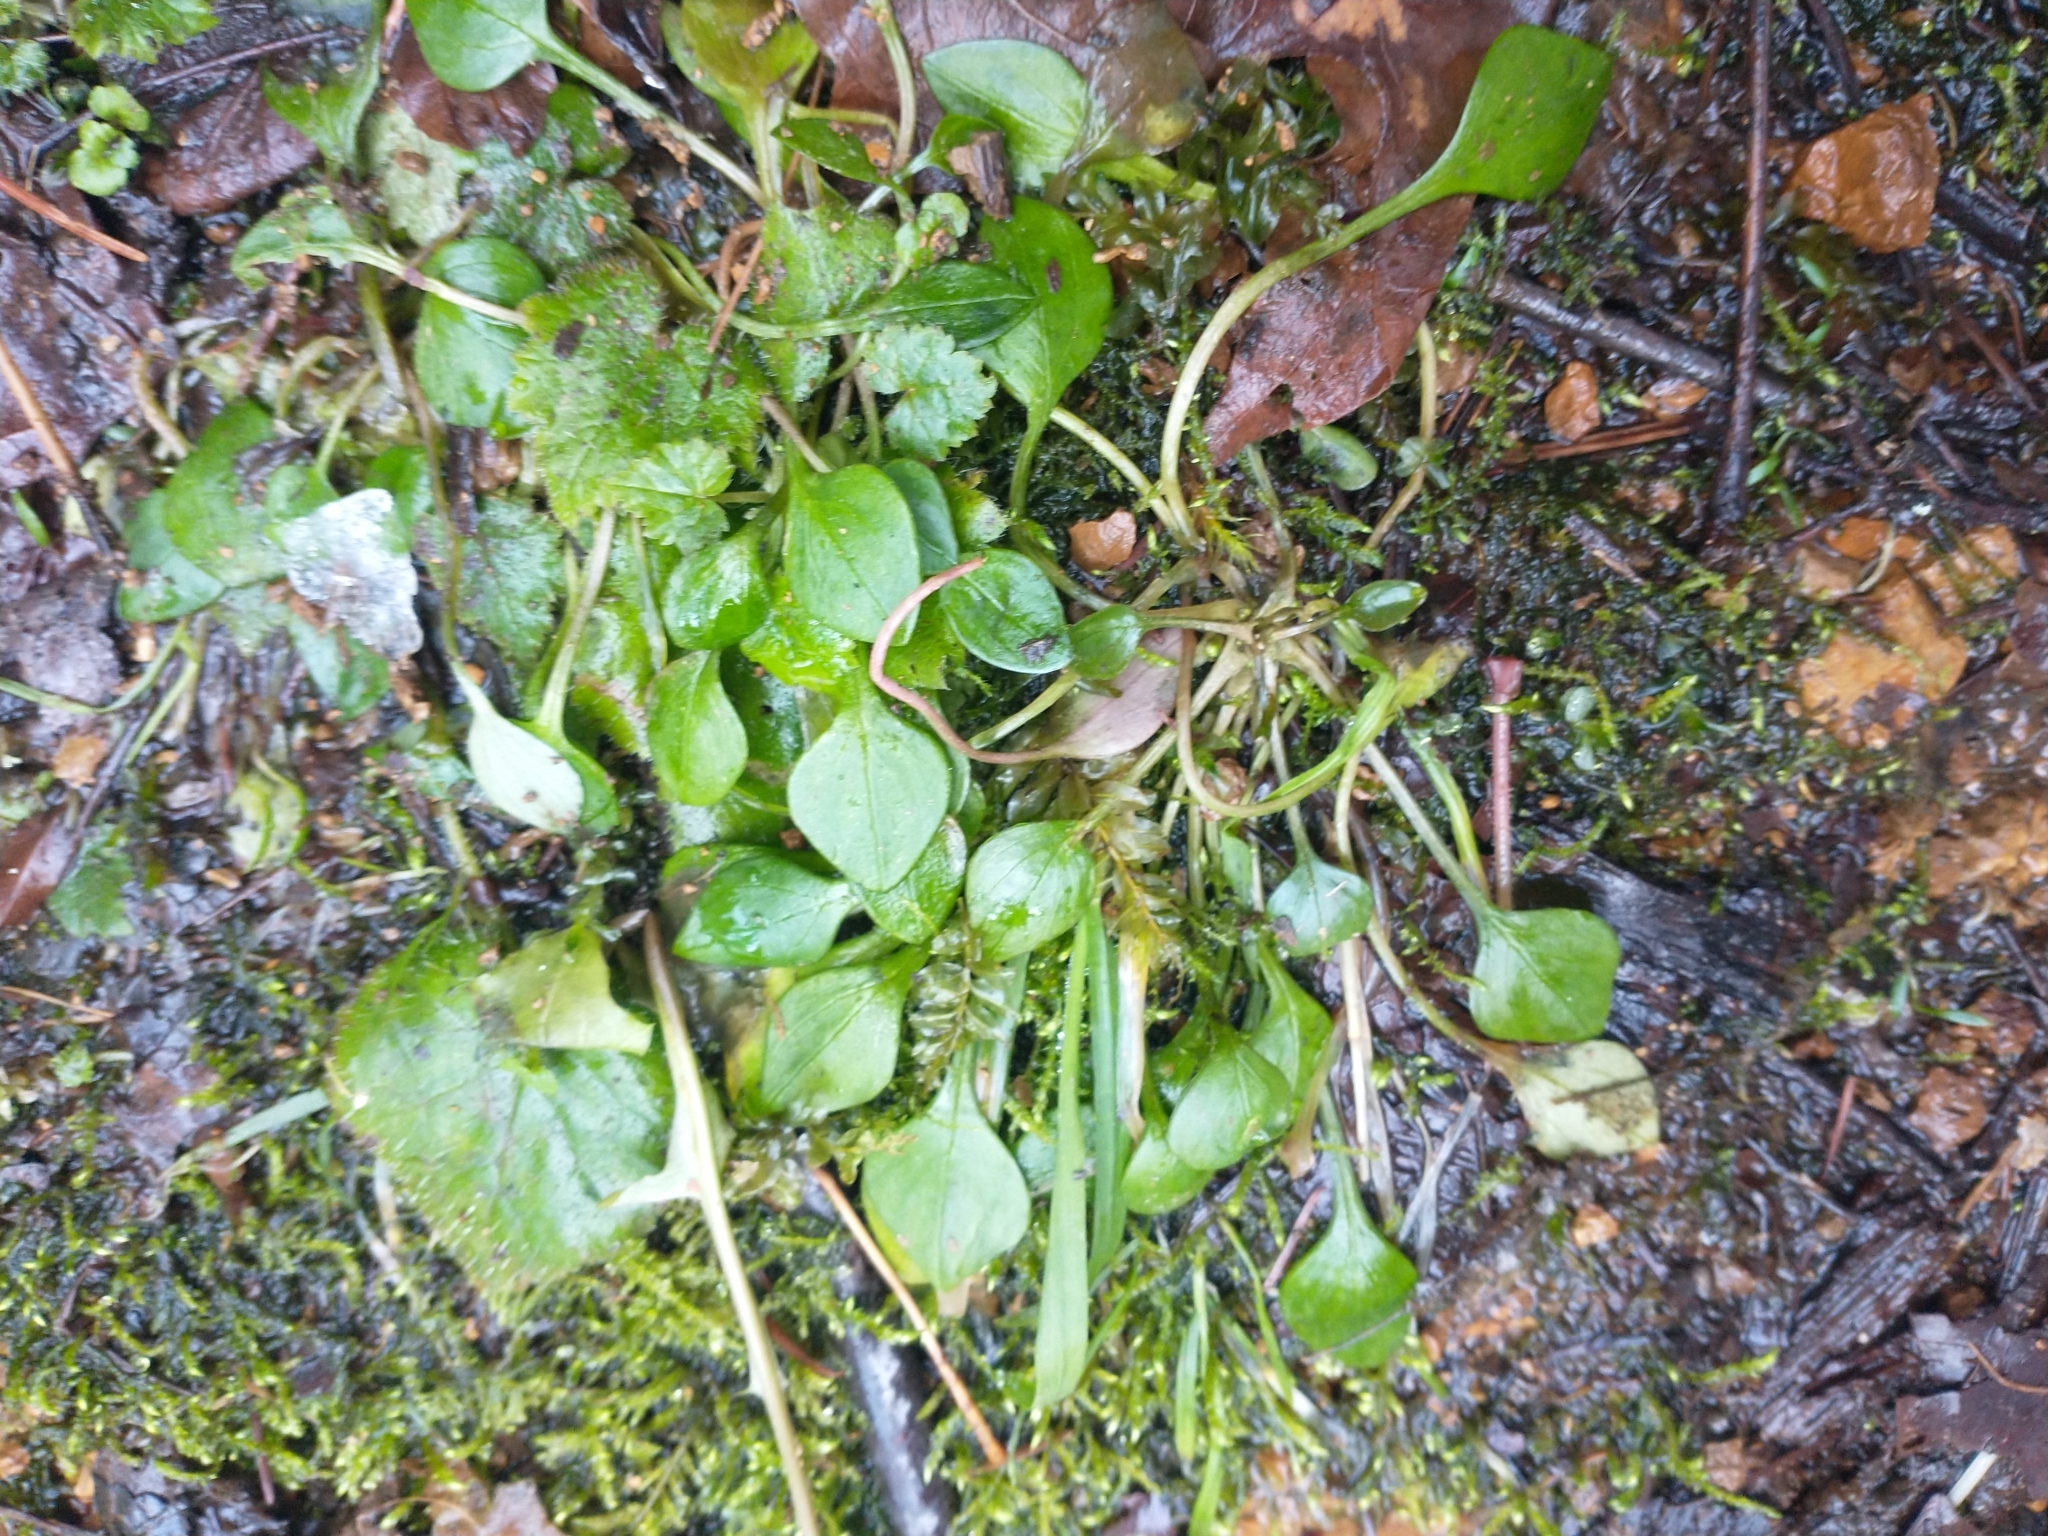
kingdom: Plantae
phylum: Tracheophyta
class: Magnoliopsida
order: Caryophyllales
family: Montiaceae
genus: Claytonia
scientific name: Claytonia sibirica
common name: Pink purslane
